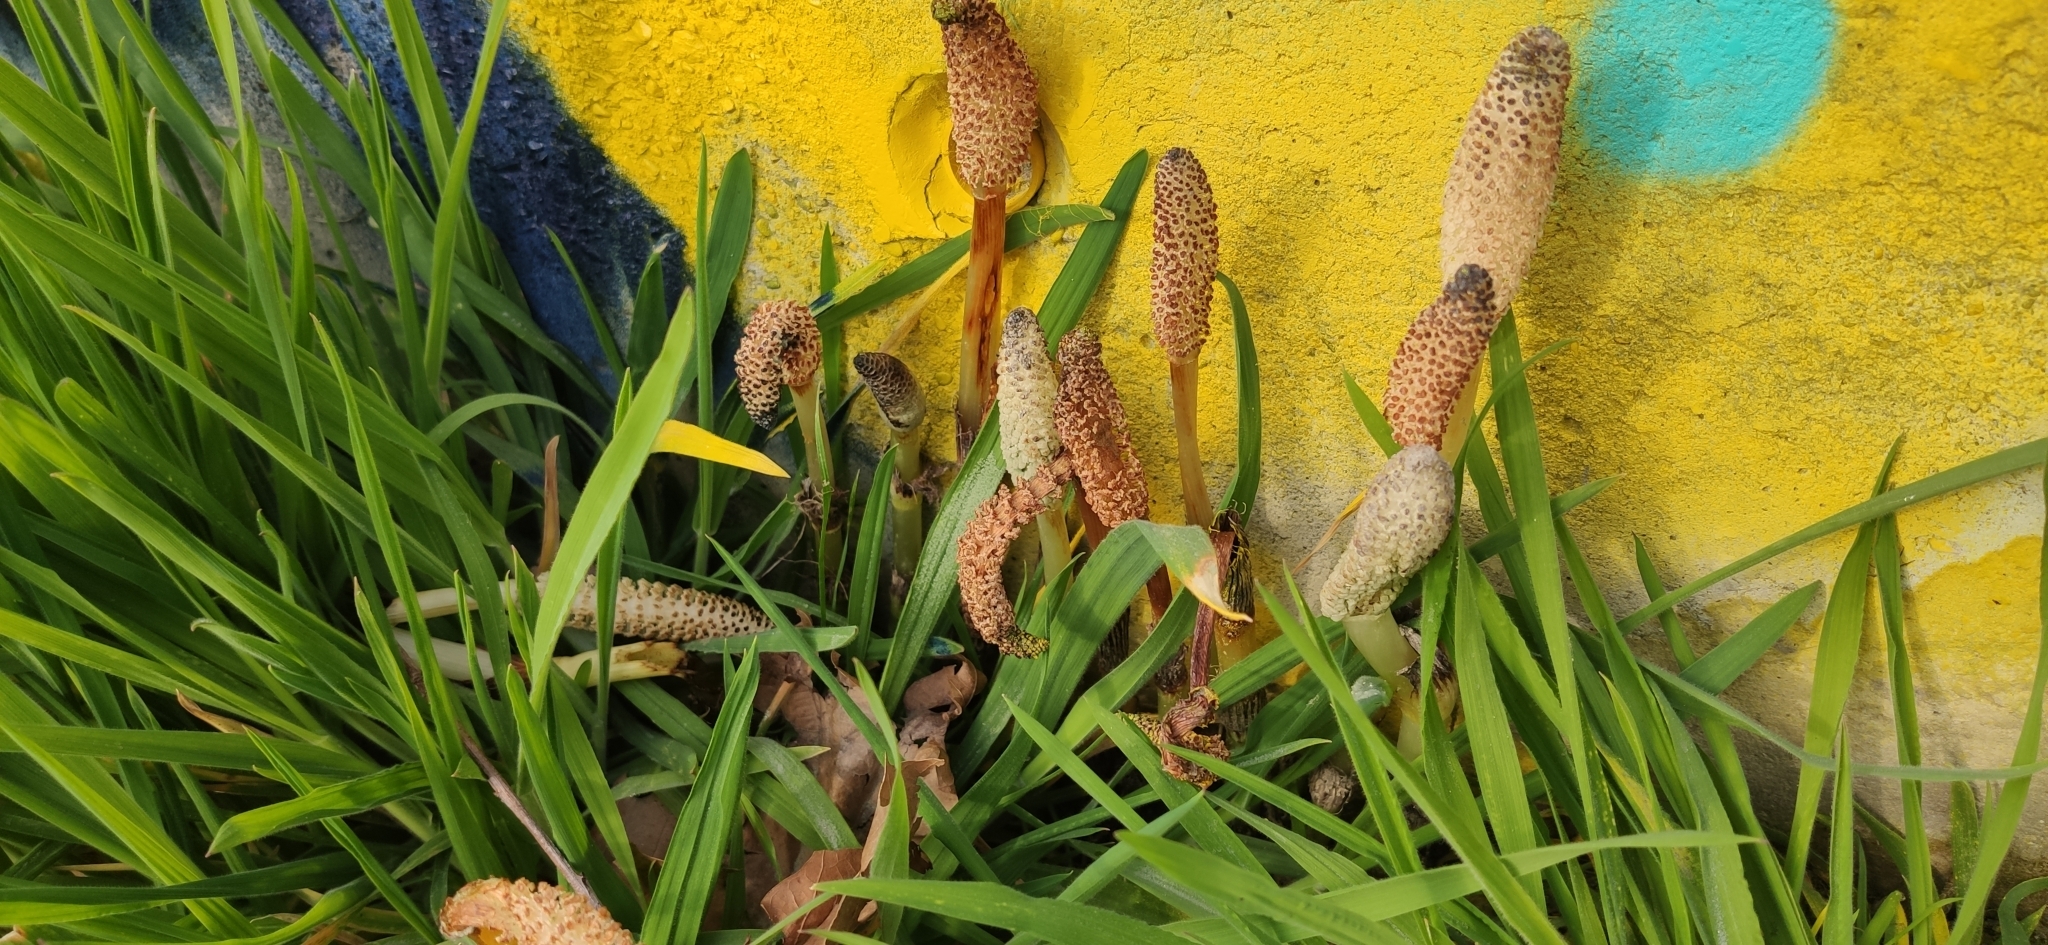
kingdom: Plantae
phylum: Tracheophyta
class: Polypodiopsida
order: Equisetales
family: Equisetaceae
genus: Equisetum
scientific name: Equisetum arvense
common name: Field horsetail
